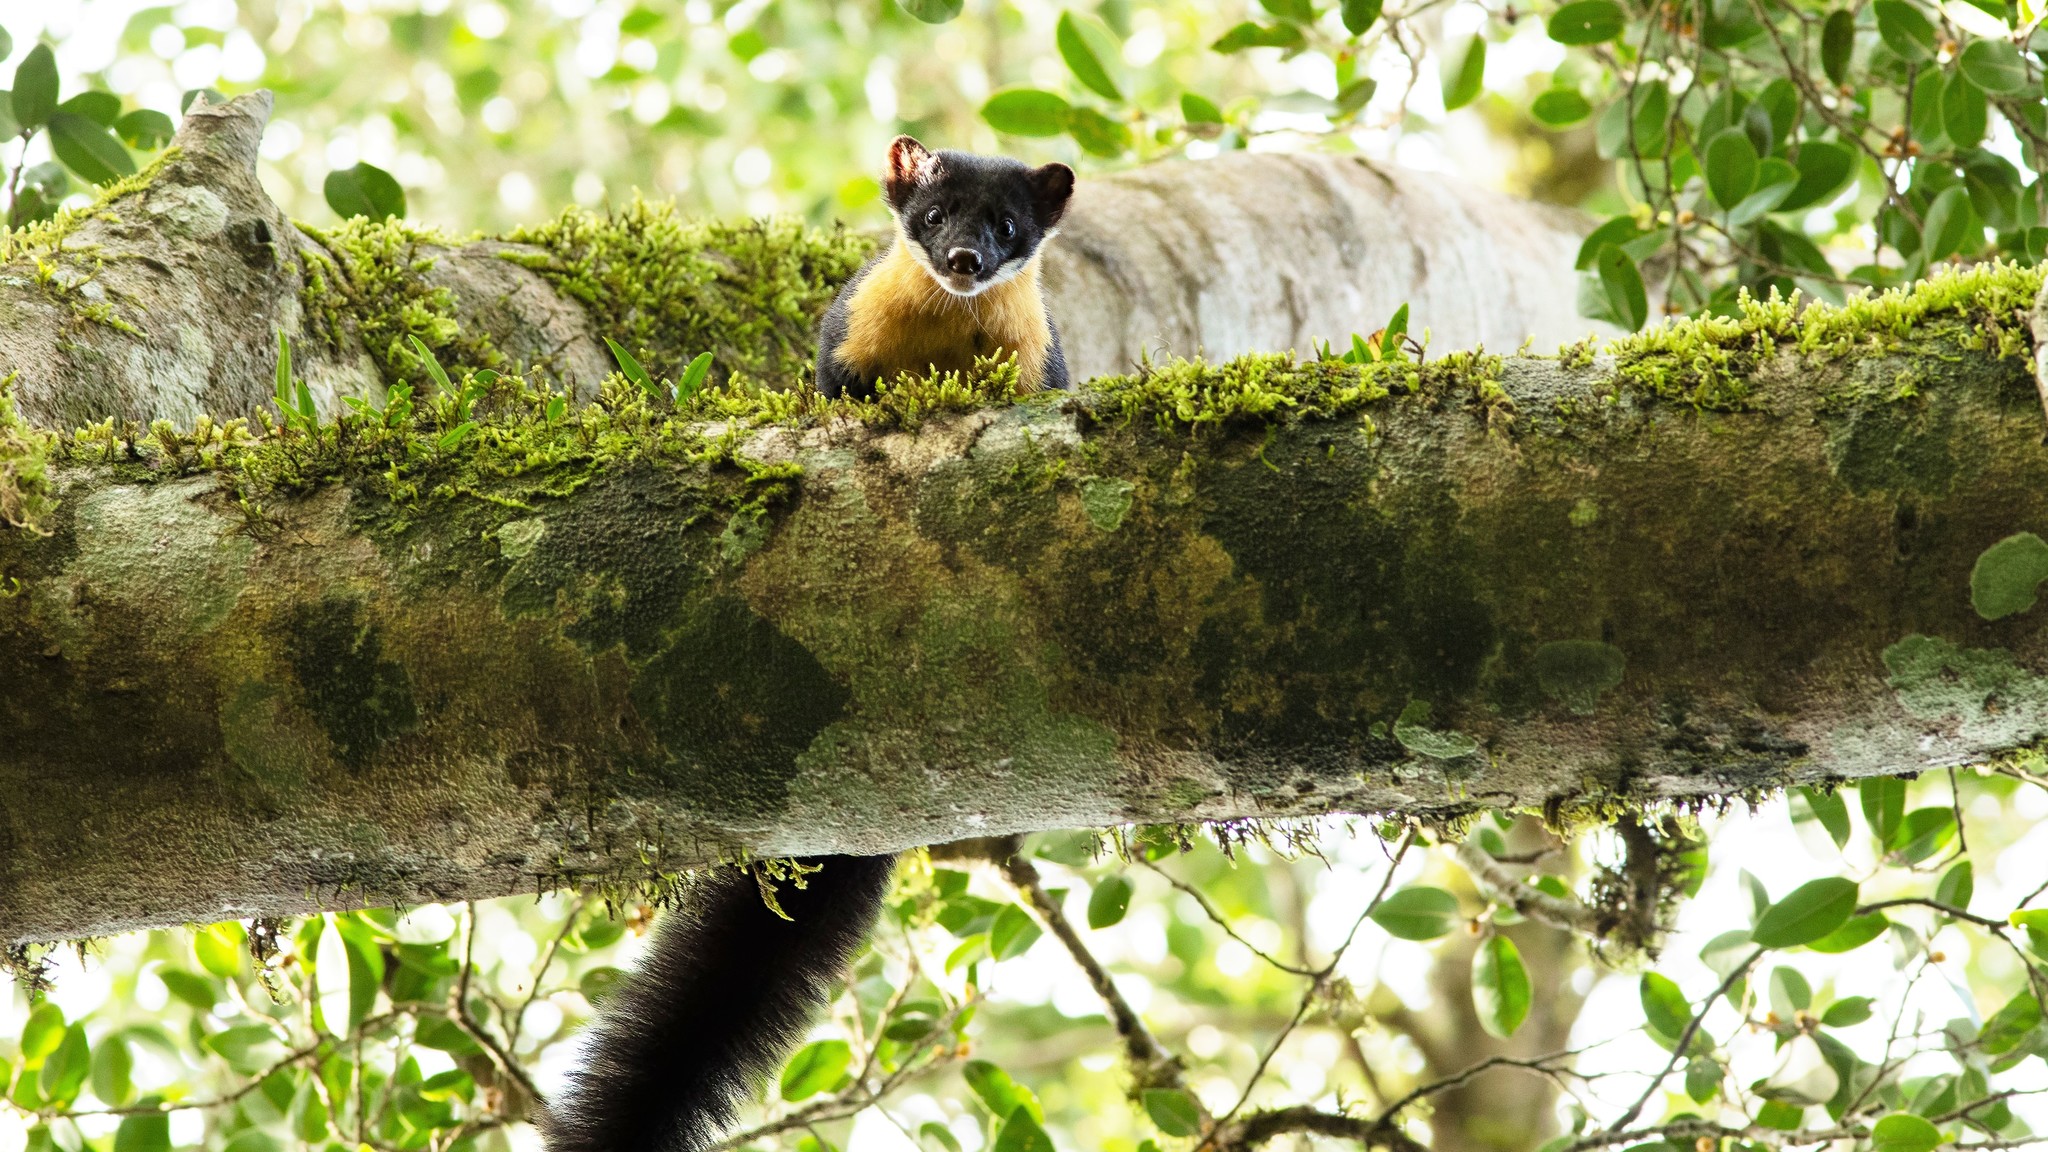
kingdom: Animalia
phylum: Chordata
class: Mammalia
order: Carnivora
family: Mustelidae
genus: Martes
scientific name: Martes gwatkinsii
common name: Nilgiri marten
